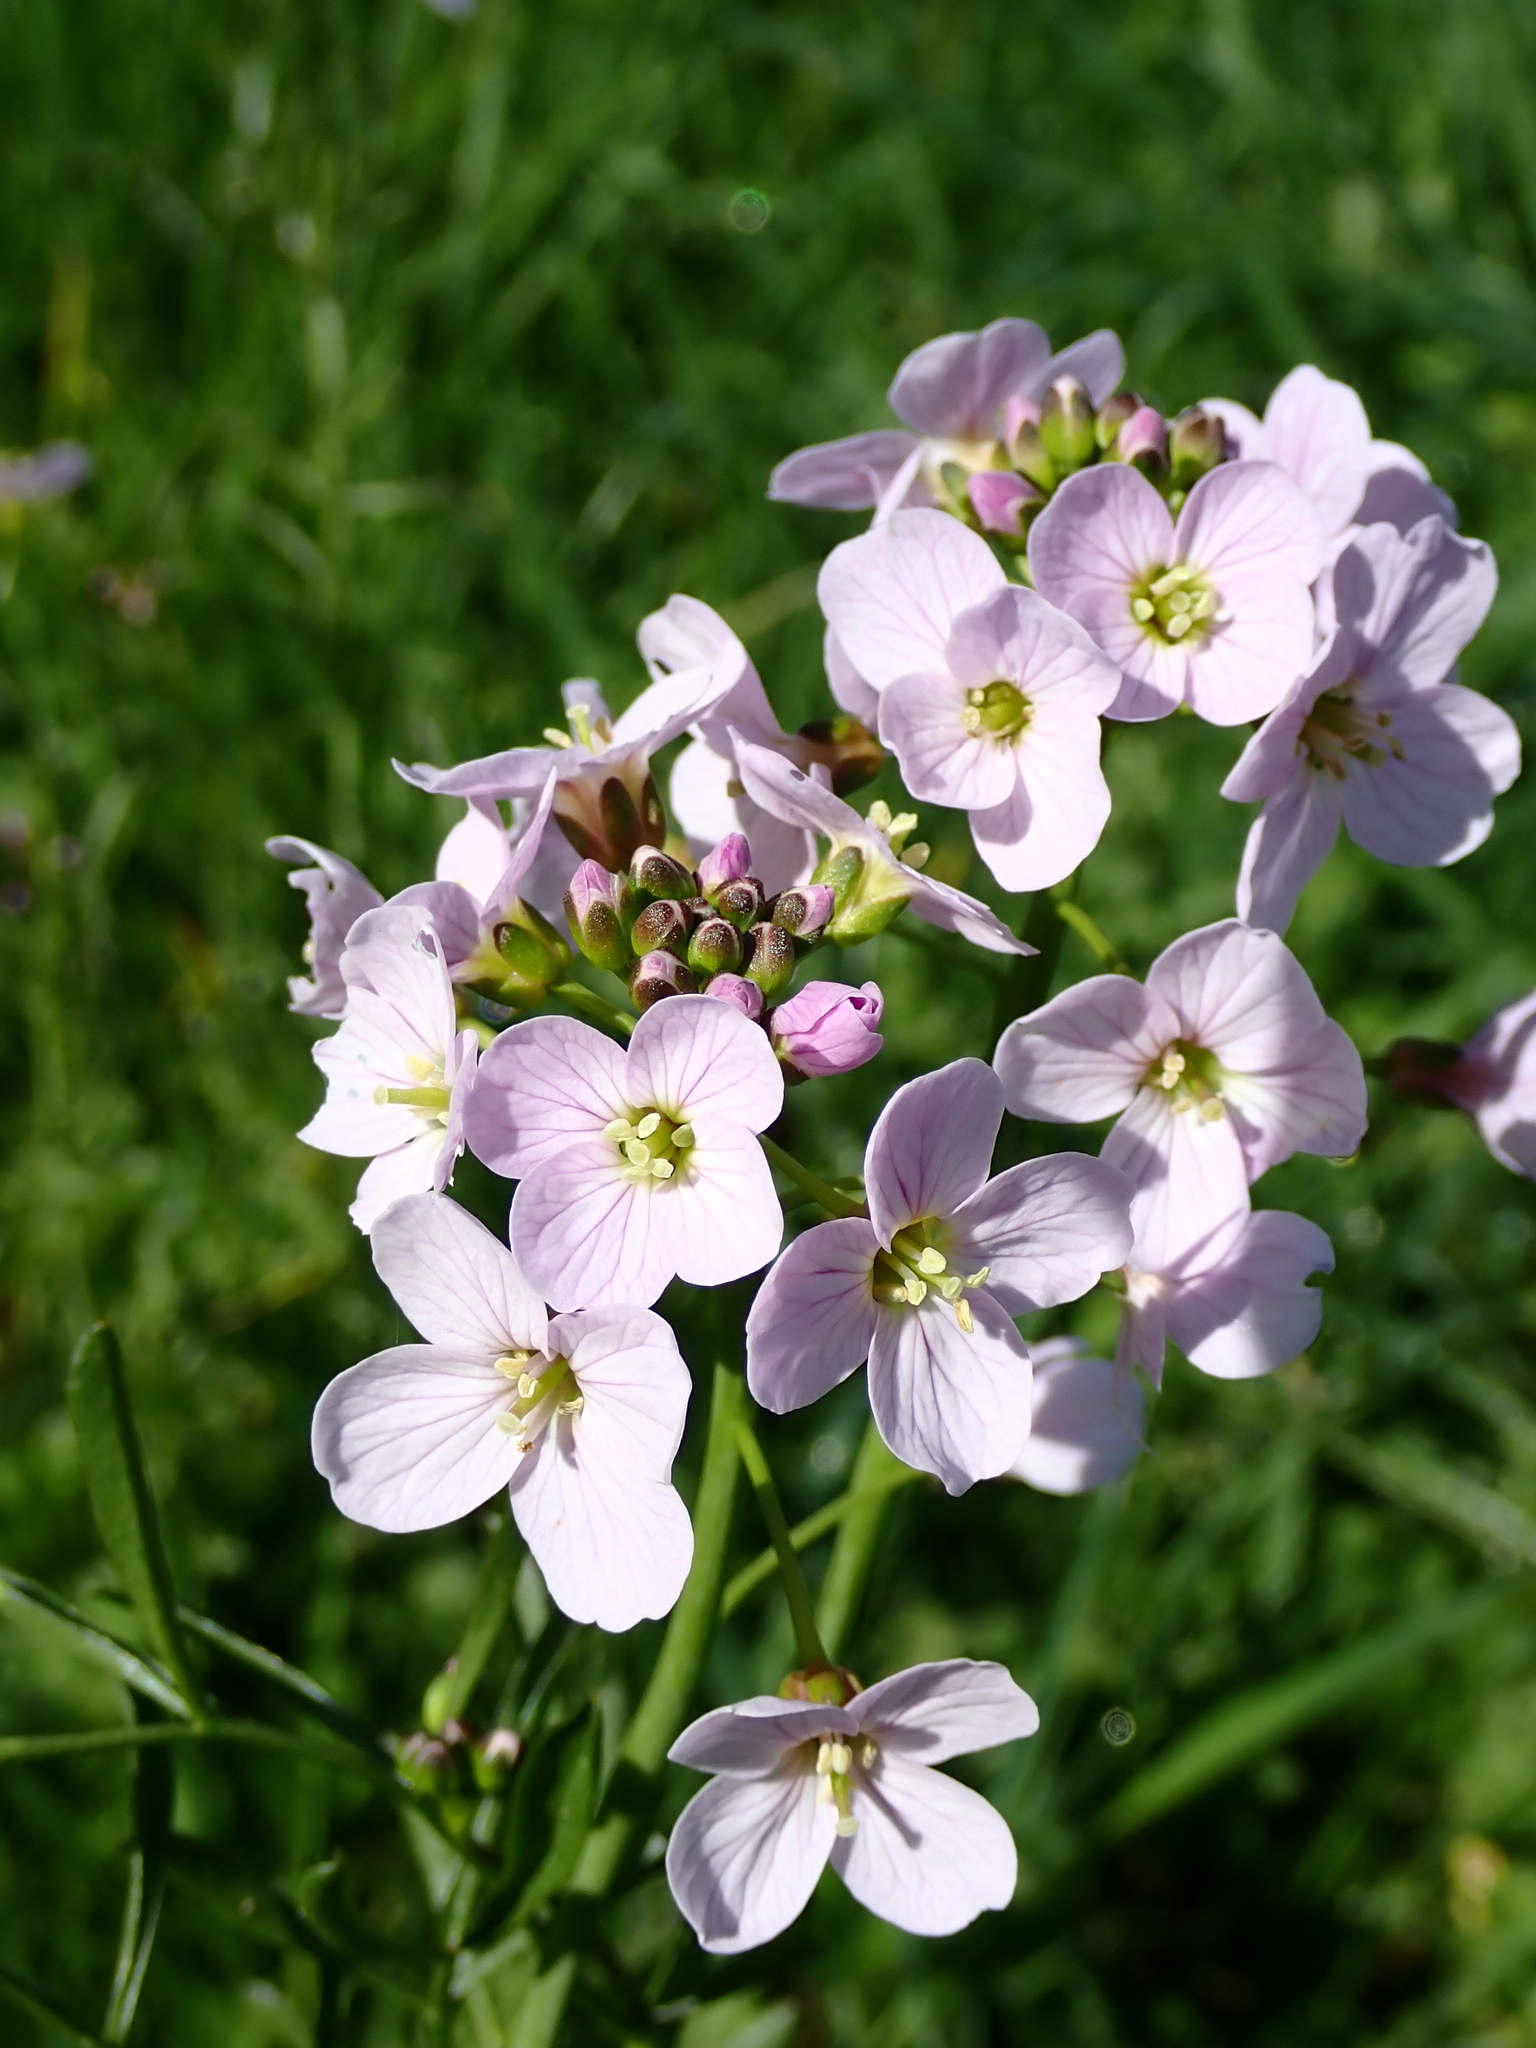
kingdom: Plantae
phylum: Tracheophyta
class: Magnoliopsida
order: Brassicales
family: Brassicaceae
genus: Cardamine
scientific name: Cardamine pratensis
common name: Cuckoo flower
